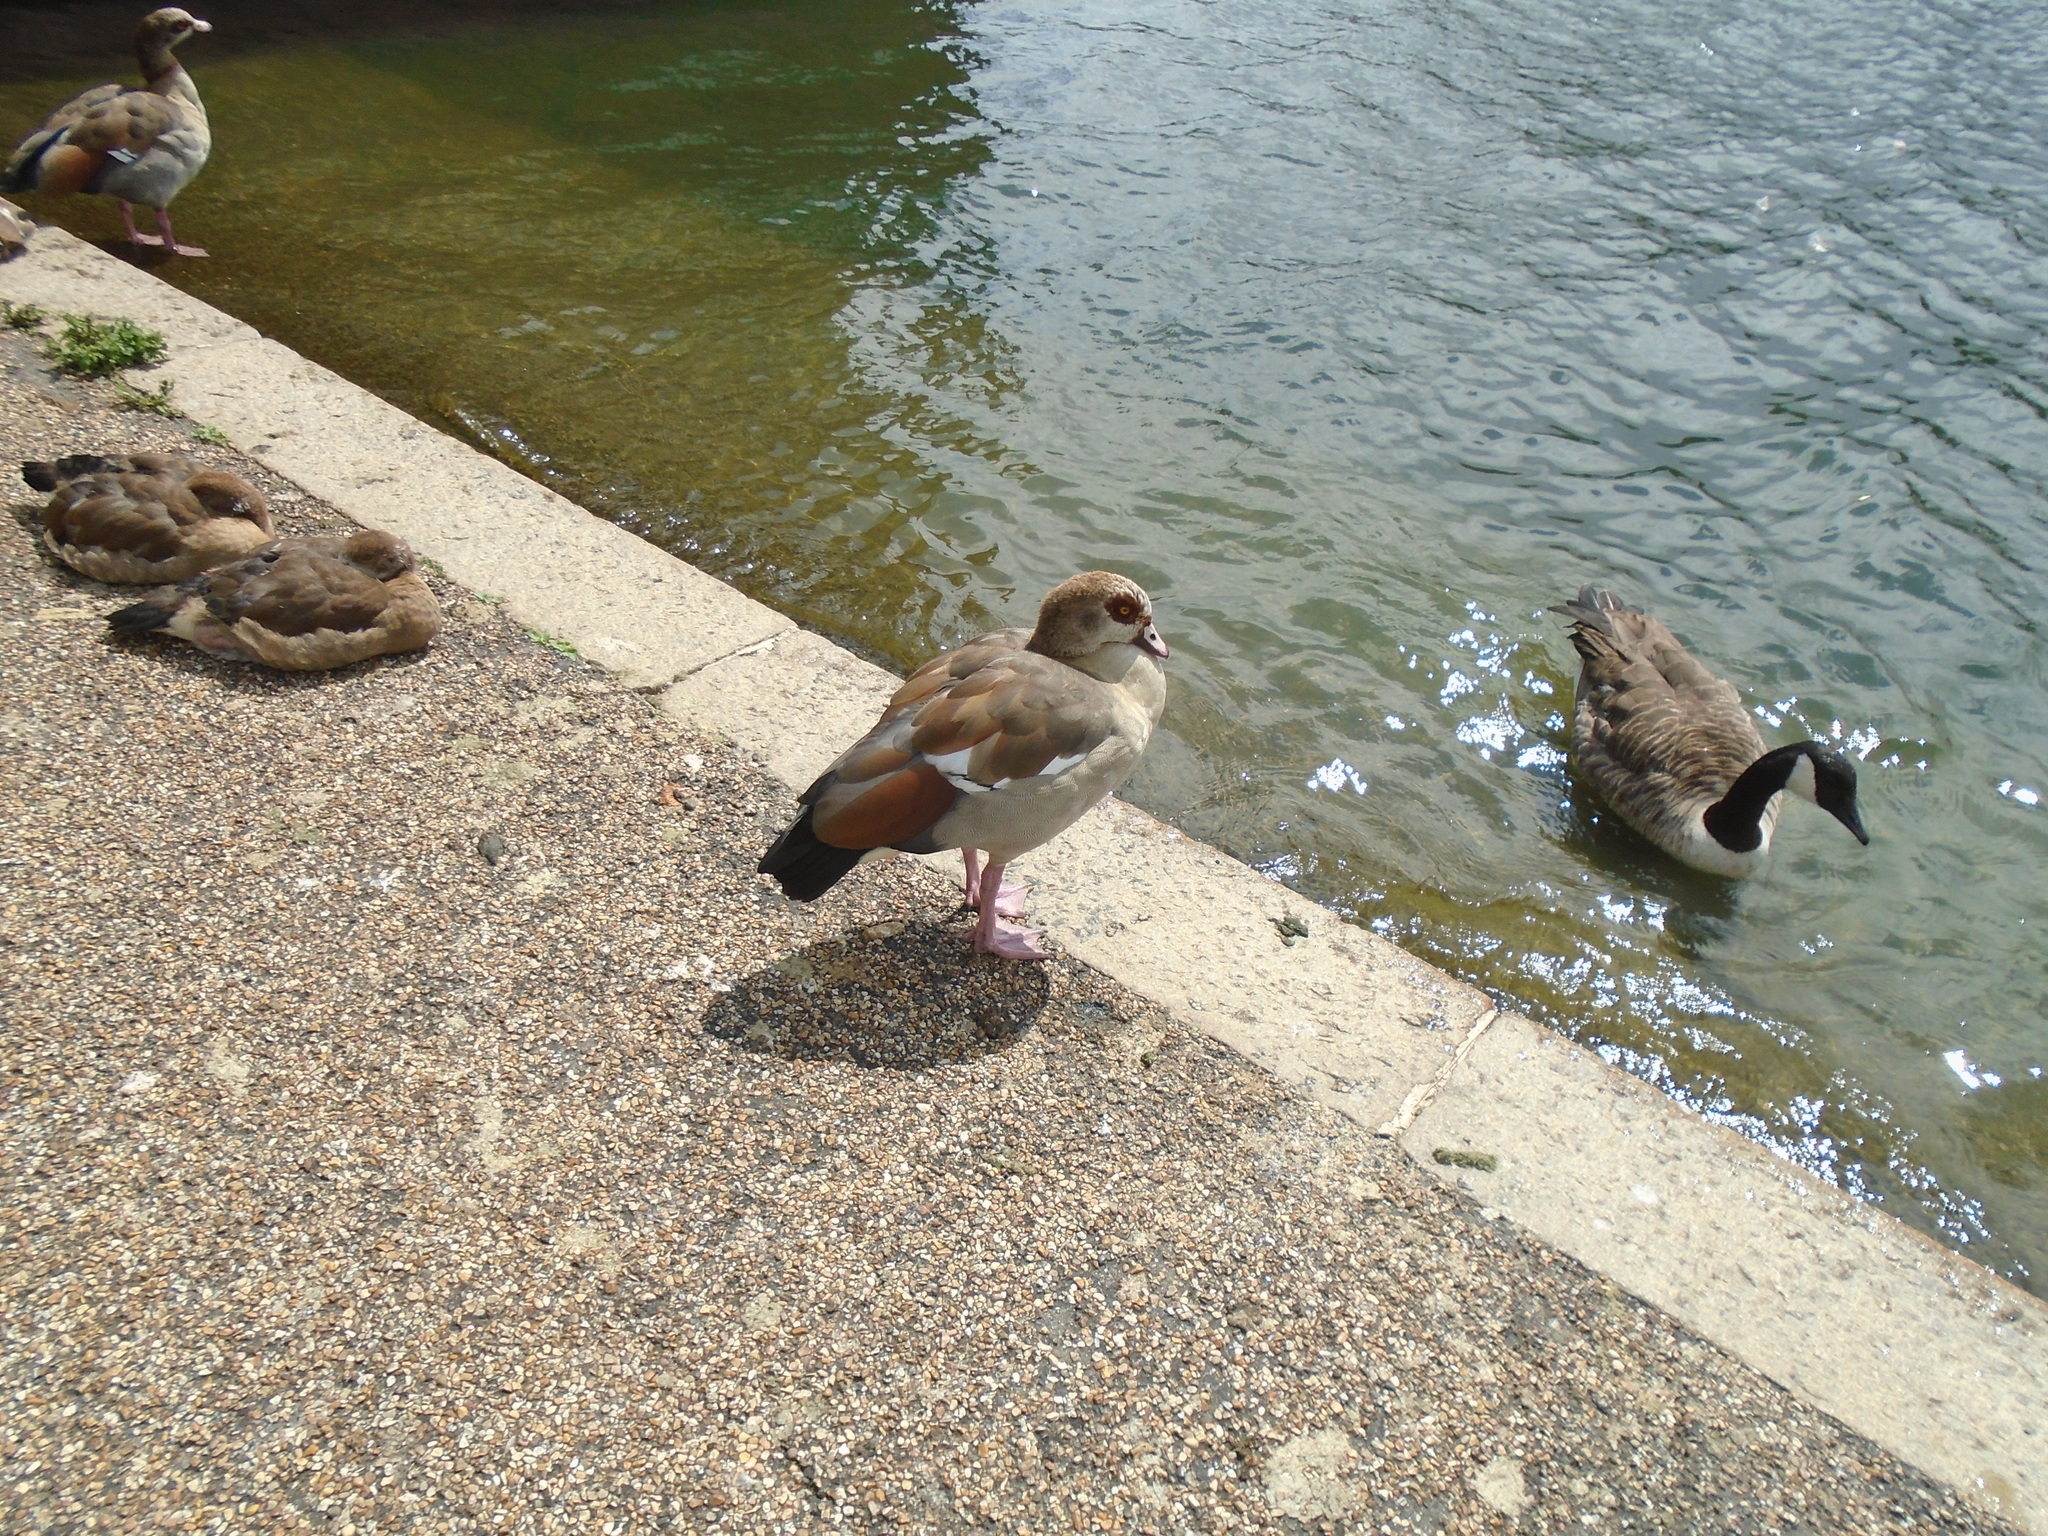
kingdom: Animalia
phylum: Chordata
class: Aves
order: Anseriformes
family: Anatidae
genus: Alopochen
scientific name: Alopochen aegyptiaca
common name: Egyptian goose
